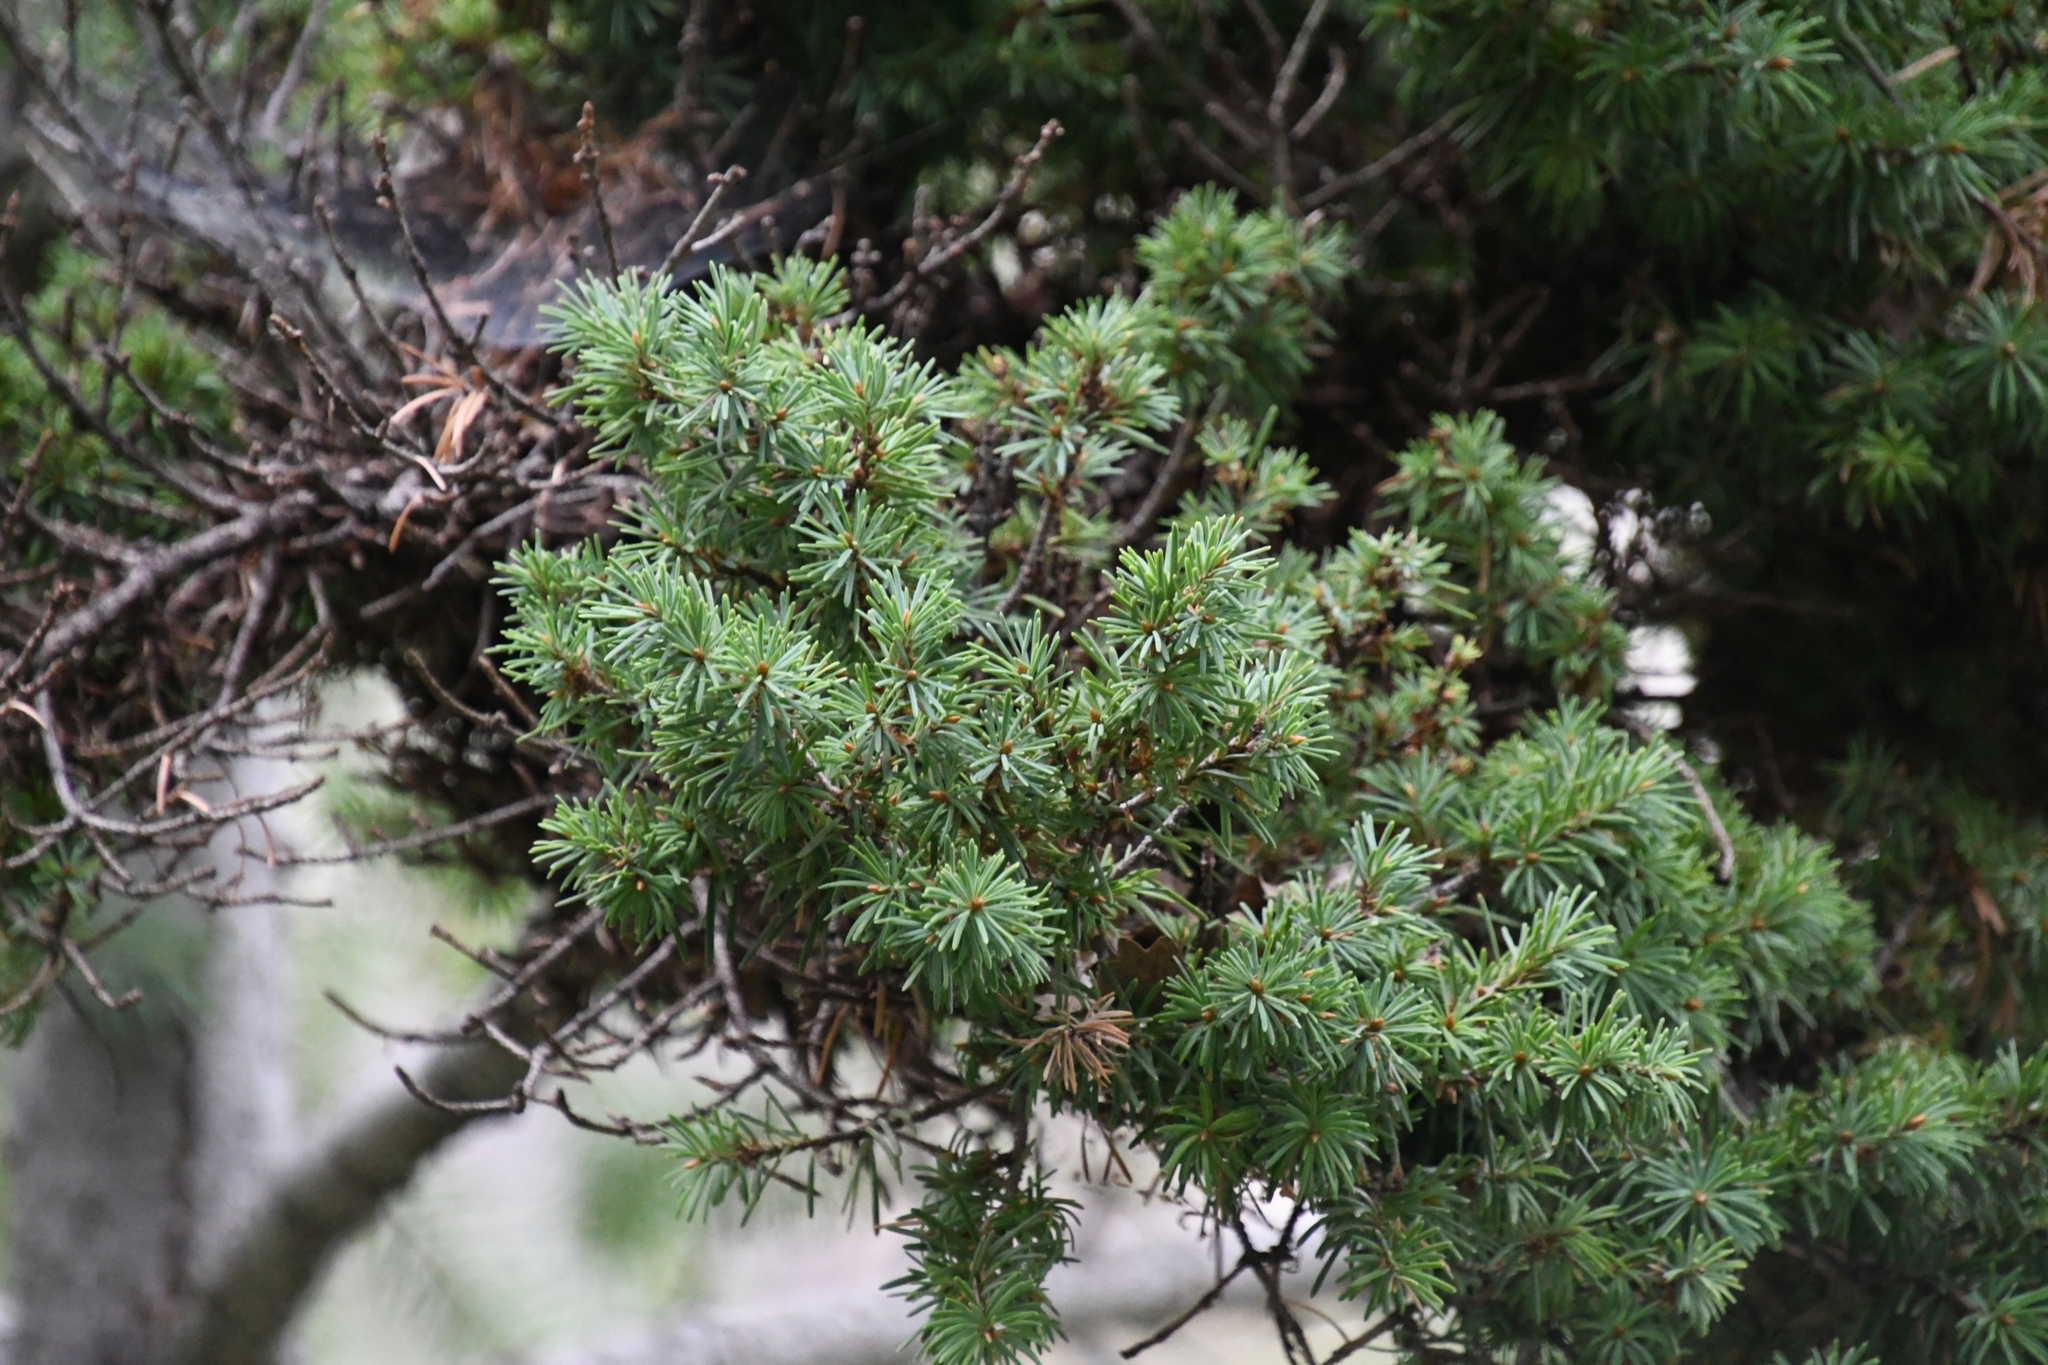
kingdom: Plantae
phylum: Tracheophyta
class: Pinopsida
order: Pinales
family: Pinaceae
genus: Pseudotsuga
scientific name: Pseudotsuga menziesii
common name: Douglas fir
